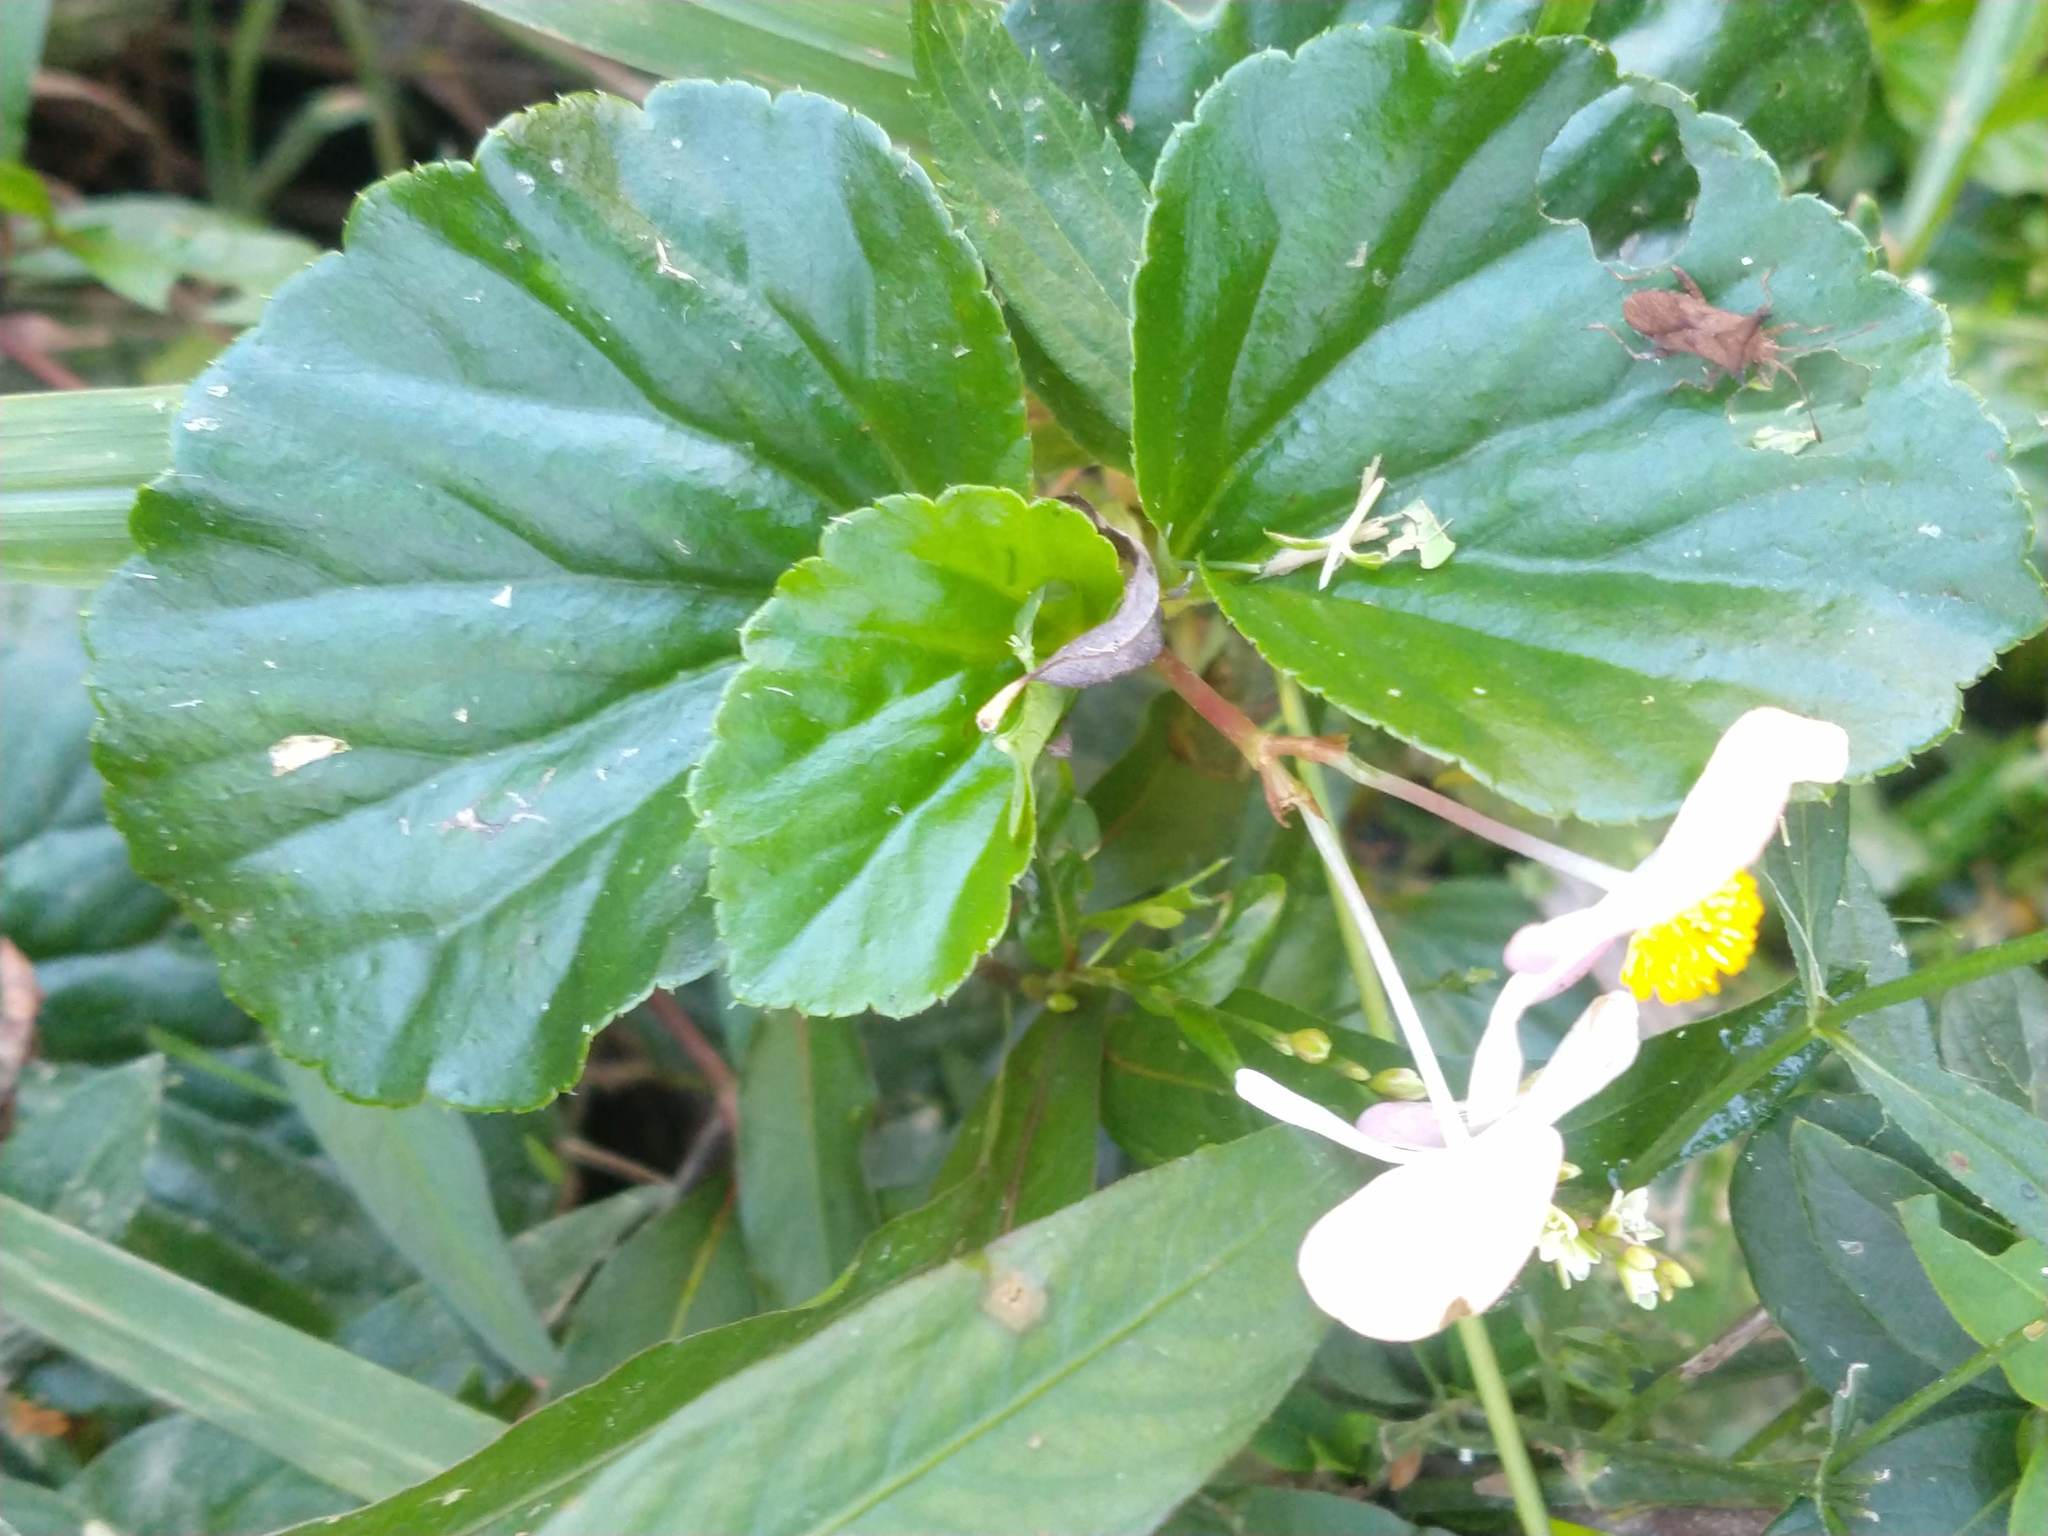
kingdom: Plantae
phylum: Tracheophyta
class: Magnoliopsida
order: Cucurbitales
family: Begoniaceae
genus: Begonia
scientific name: Begonia cucullata
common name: Clubbed begonia
